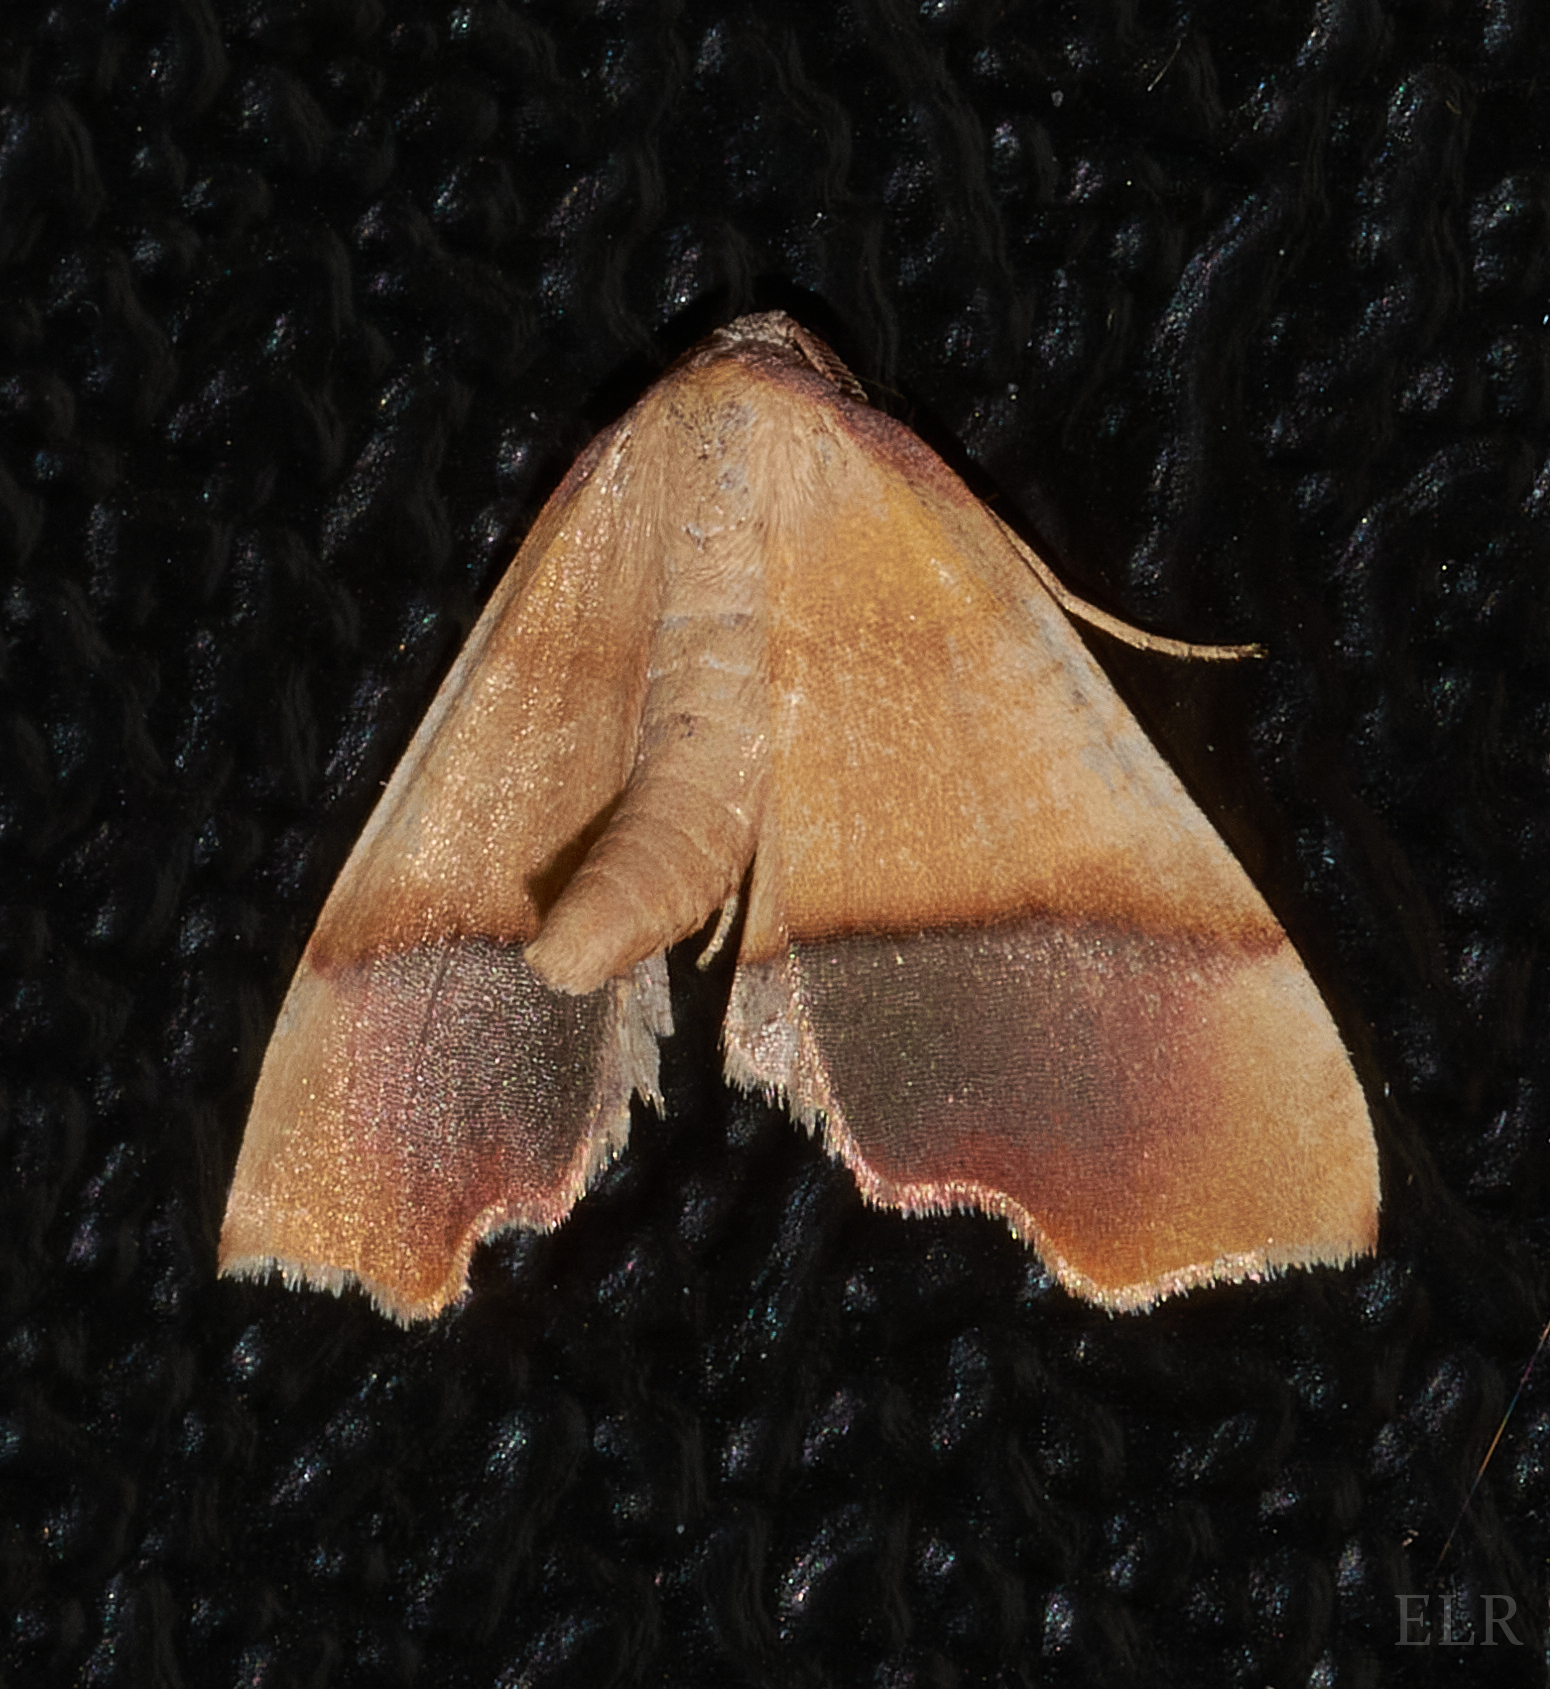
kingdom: Animalia
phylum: Arthropoda
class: Insecta
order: Lepidoptera
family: Geometridae
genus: Plagodis
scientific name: Plagodis phlogosaria
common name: Straight-lined plagodis
